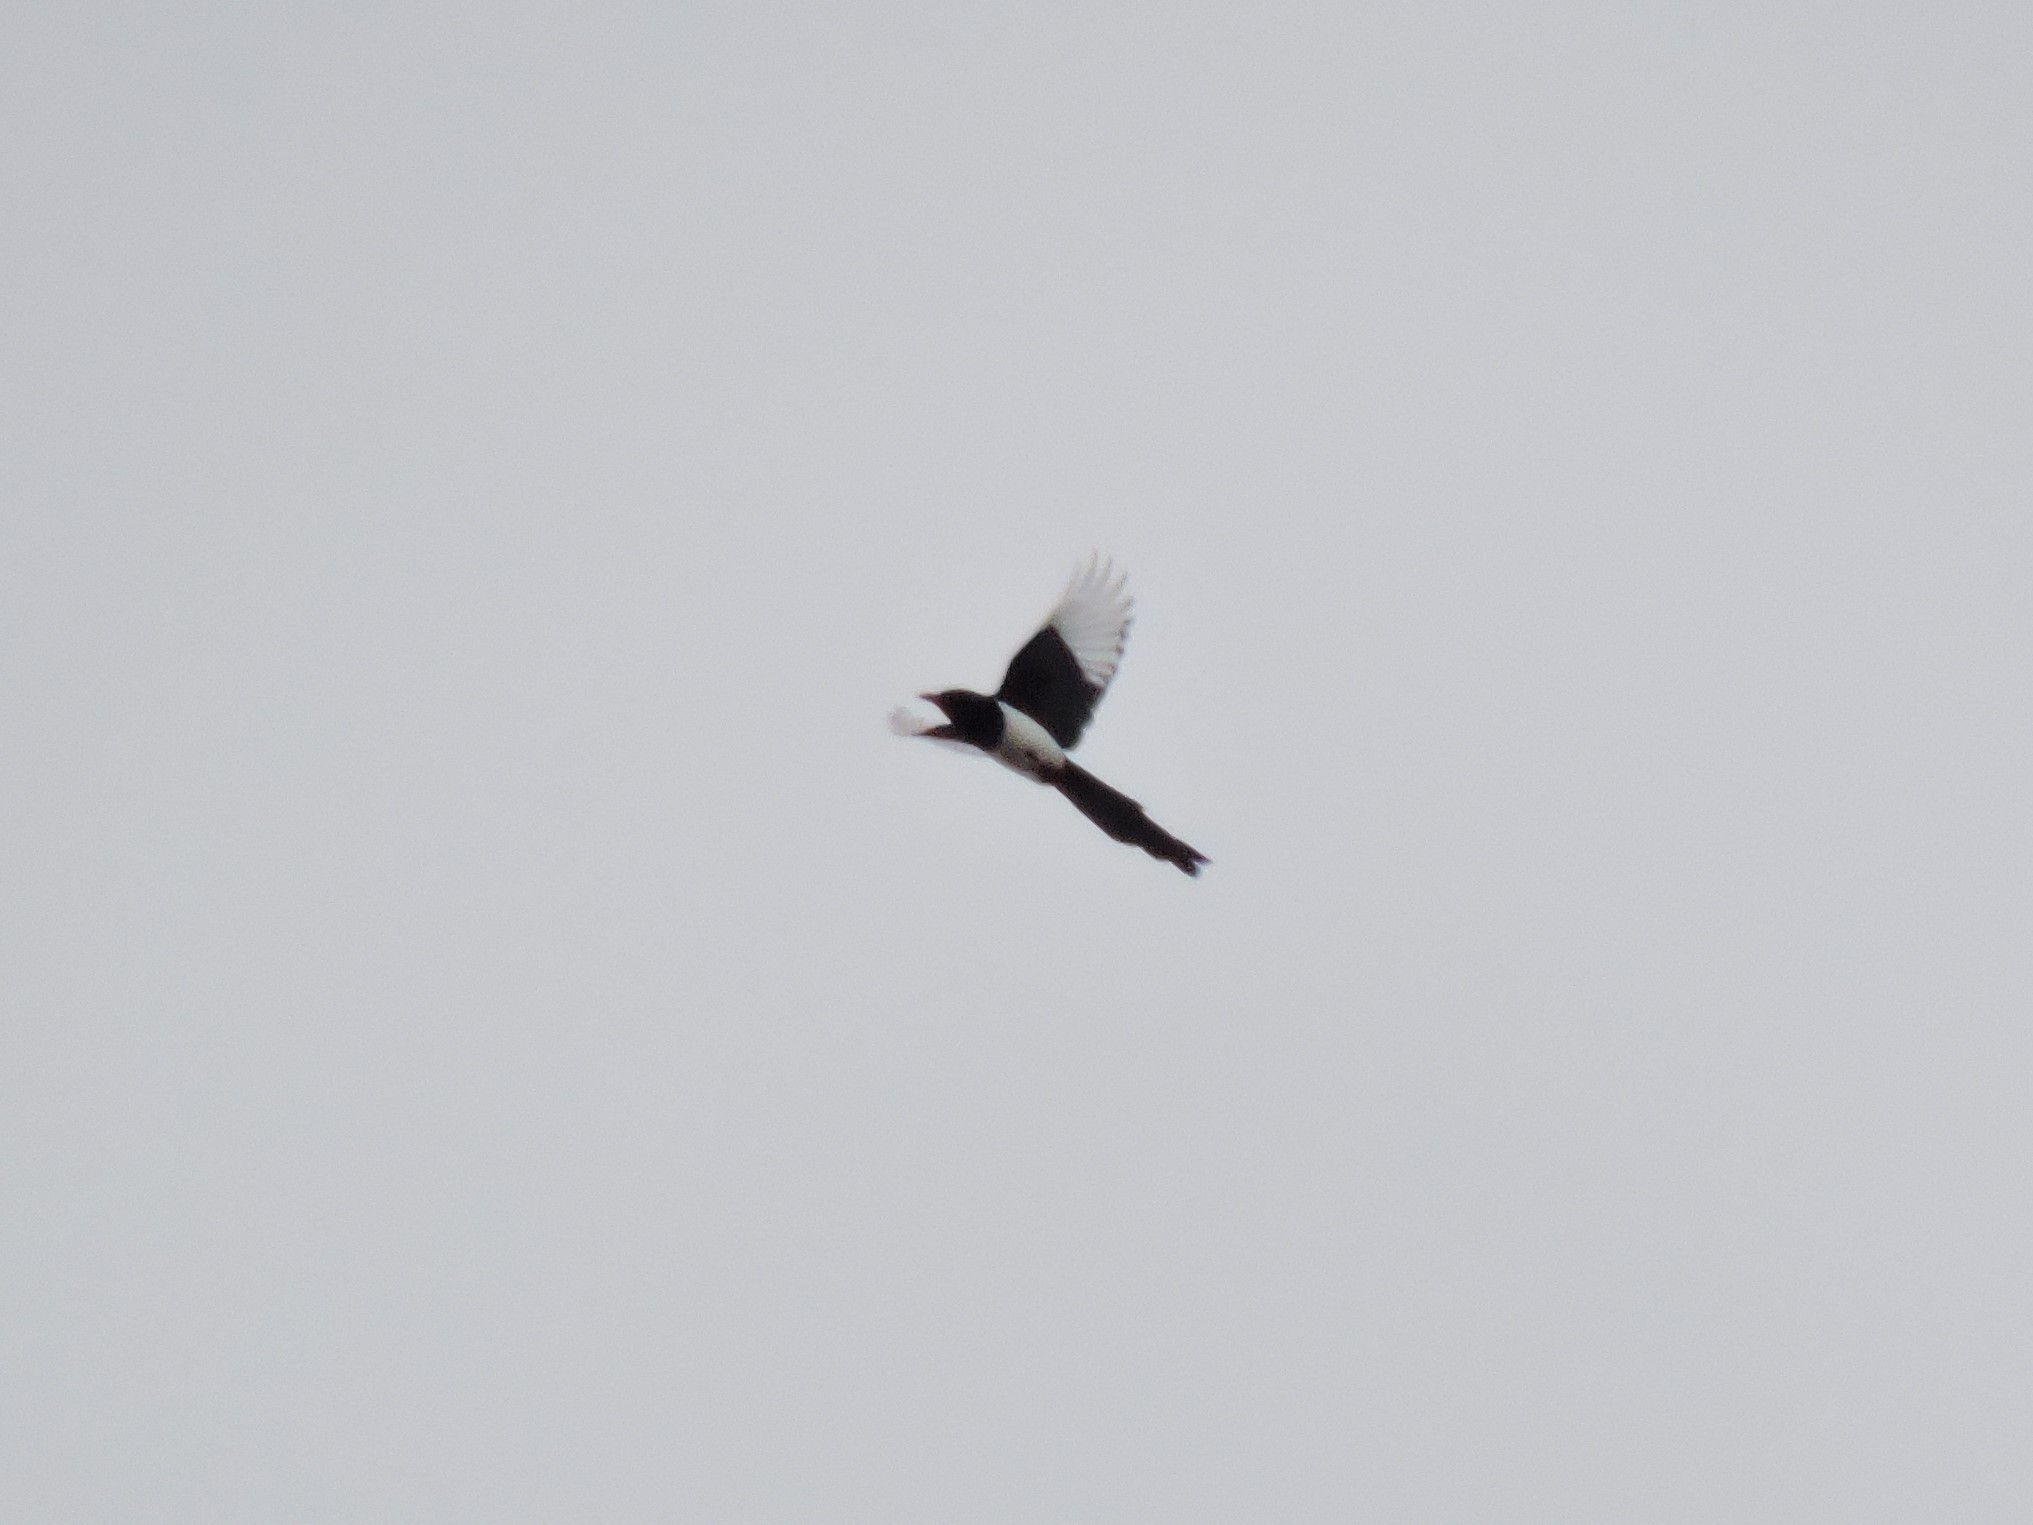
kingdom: Animalia
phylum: Chordata
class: Aves
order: Passeriformes
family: Corvidae
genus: Pica
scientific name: Pica pica
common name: Eurasian magpie
